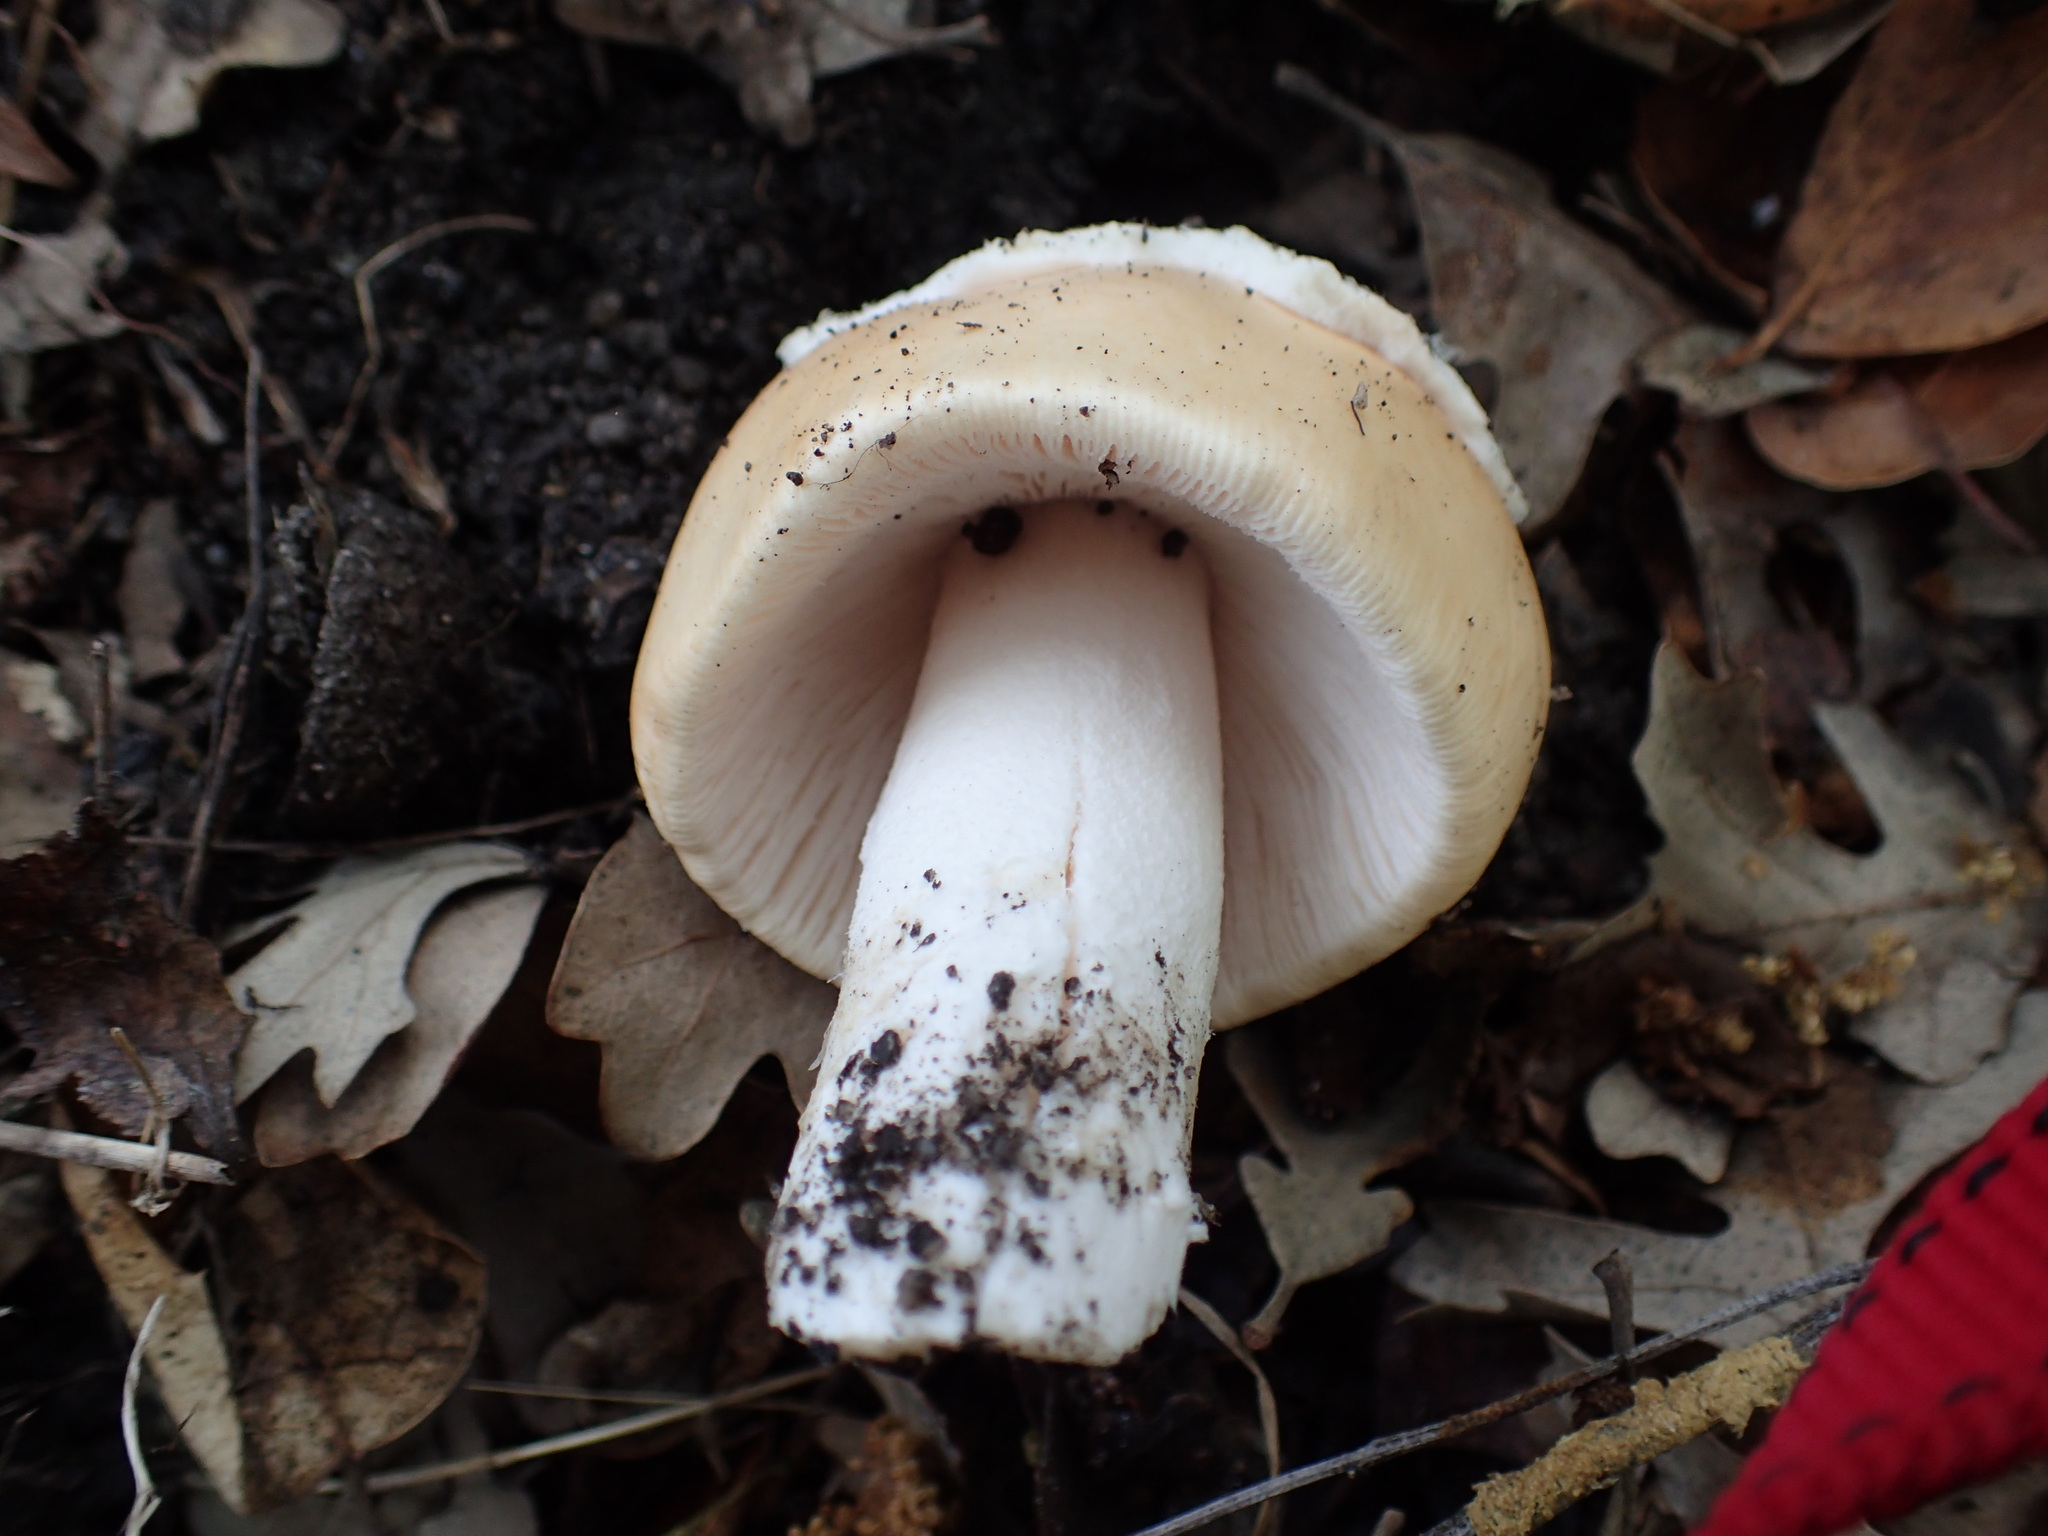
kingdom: Fungi
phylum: Basidiomycota
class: Agaricomycetes
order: Agaricales
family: Amanitaceae
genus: Amanita
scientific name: Amanita velosa
